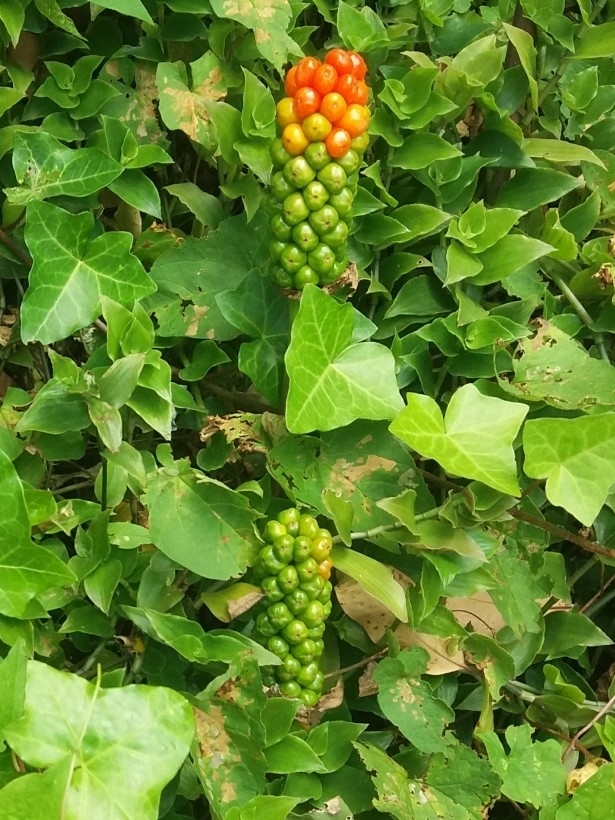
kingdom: Plantae
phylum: Tracheophyta
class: Liliopsida
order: Alismatales
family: Araceae
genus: Arum
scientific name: Arum italicum
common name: Italian lords-and-ladies
